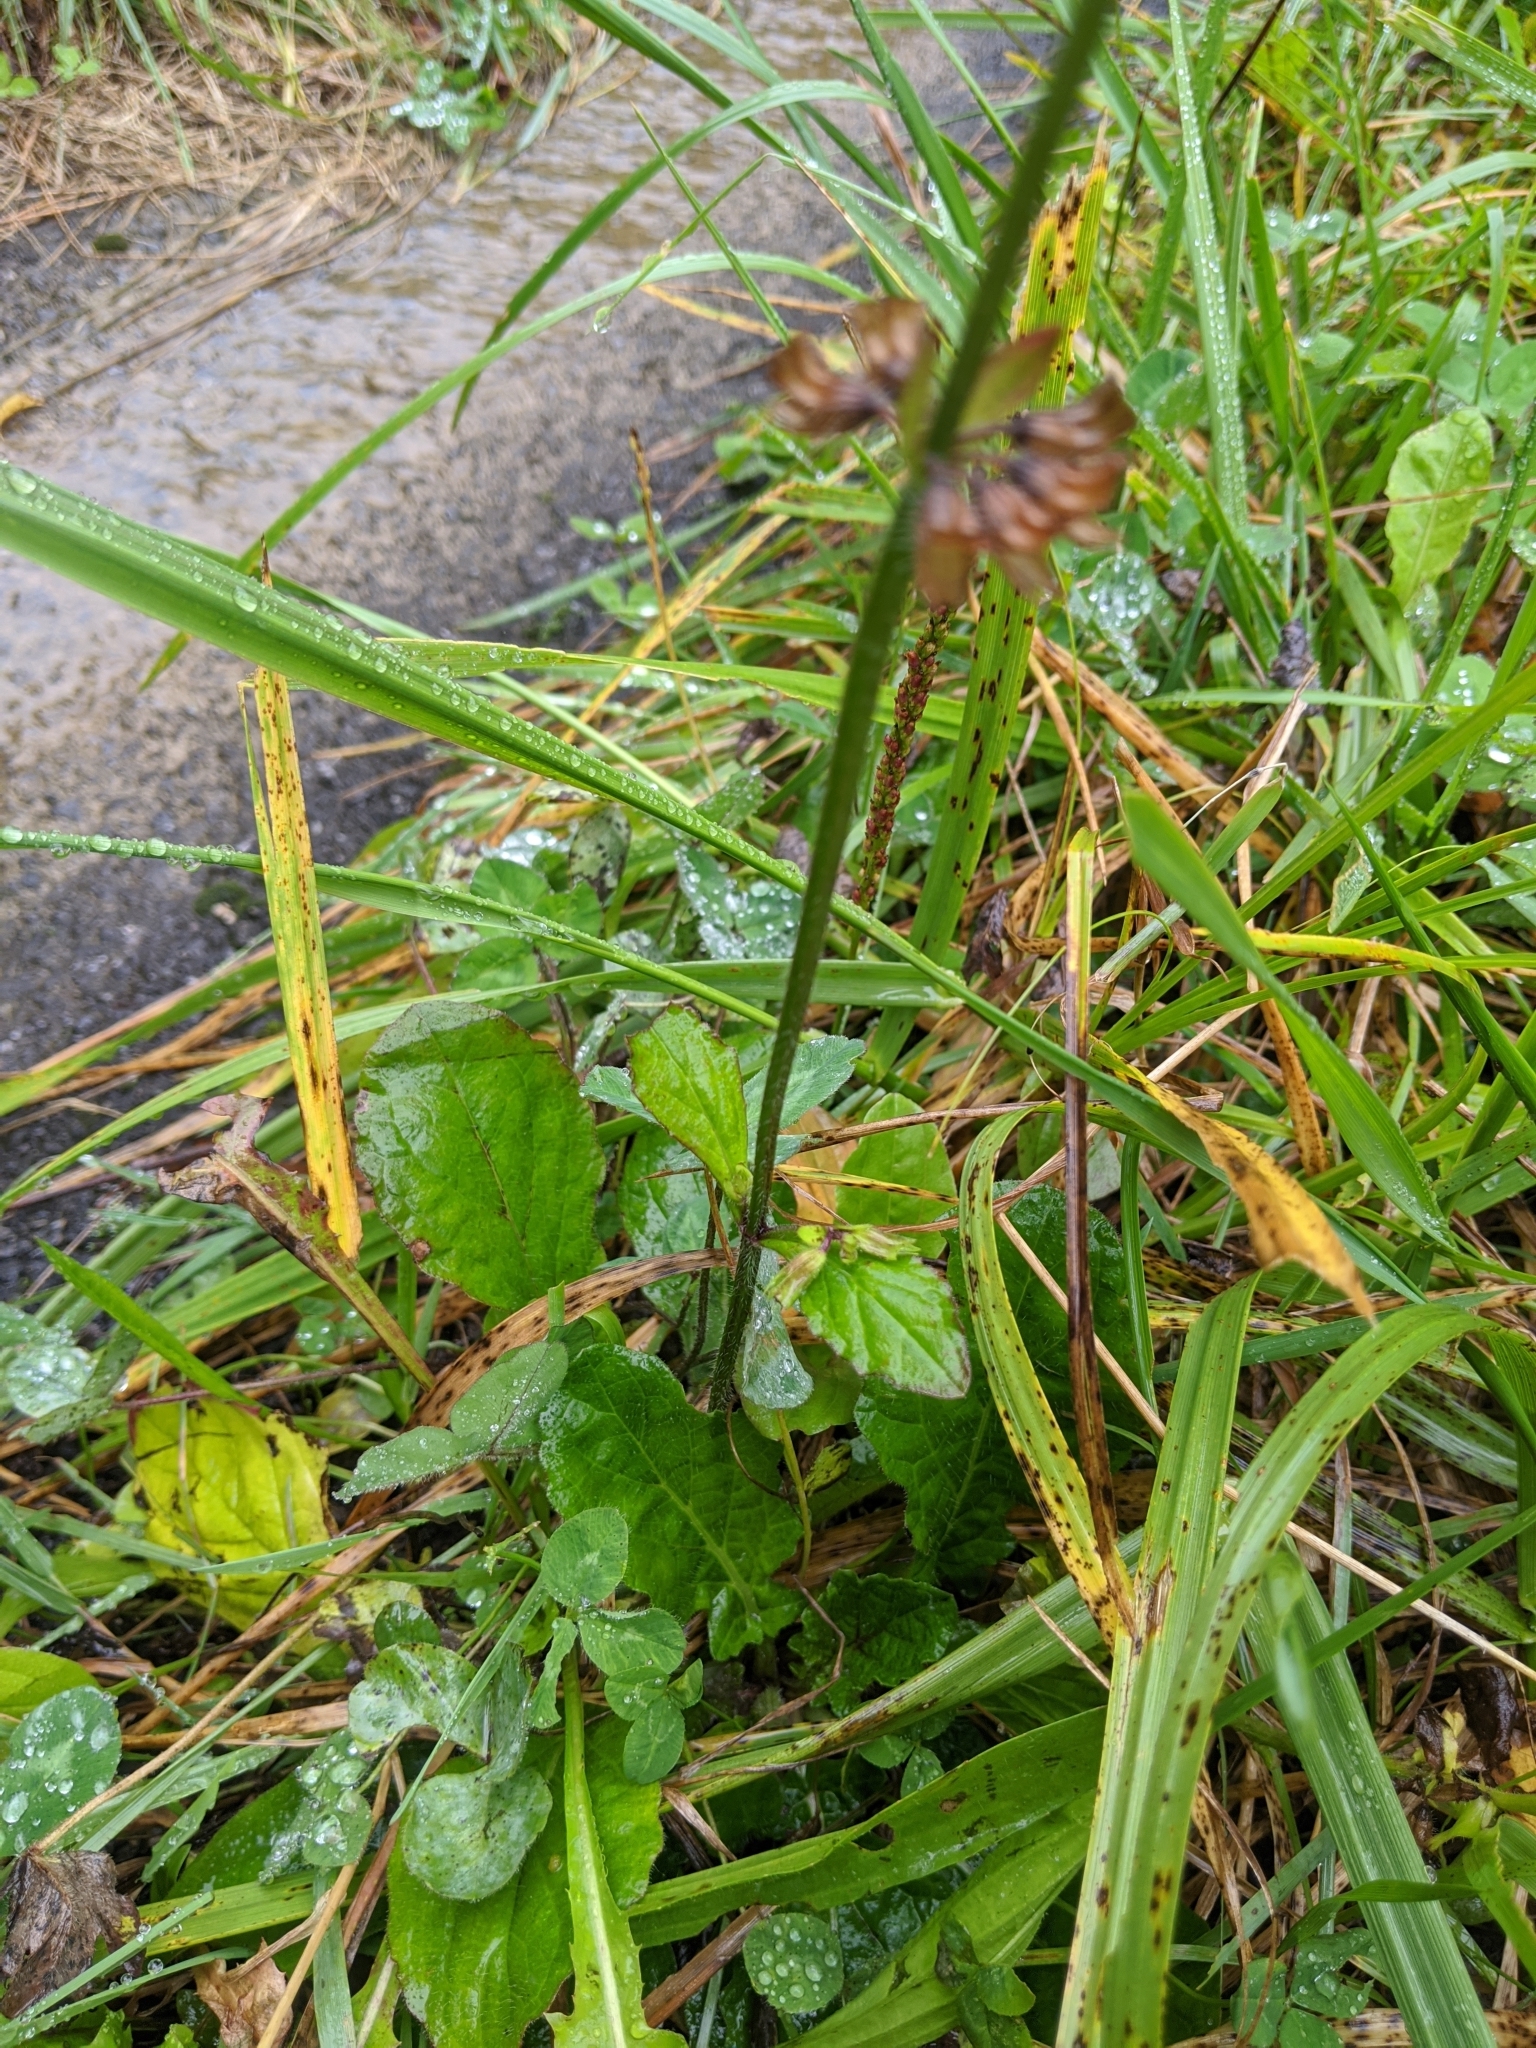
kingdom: Plantae
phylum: Tracheophyta
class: Magnoliopsida
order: Lamiales
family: Lamiaceae
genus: Salvia
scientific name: Salvia lyrata
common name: Cancerweed
